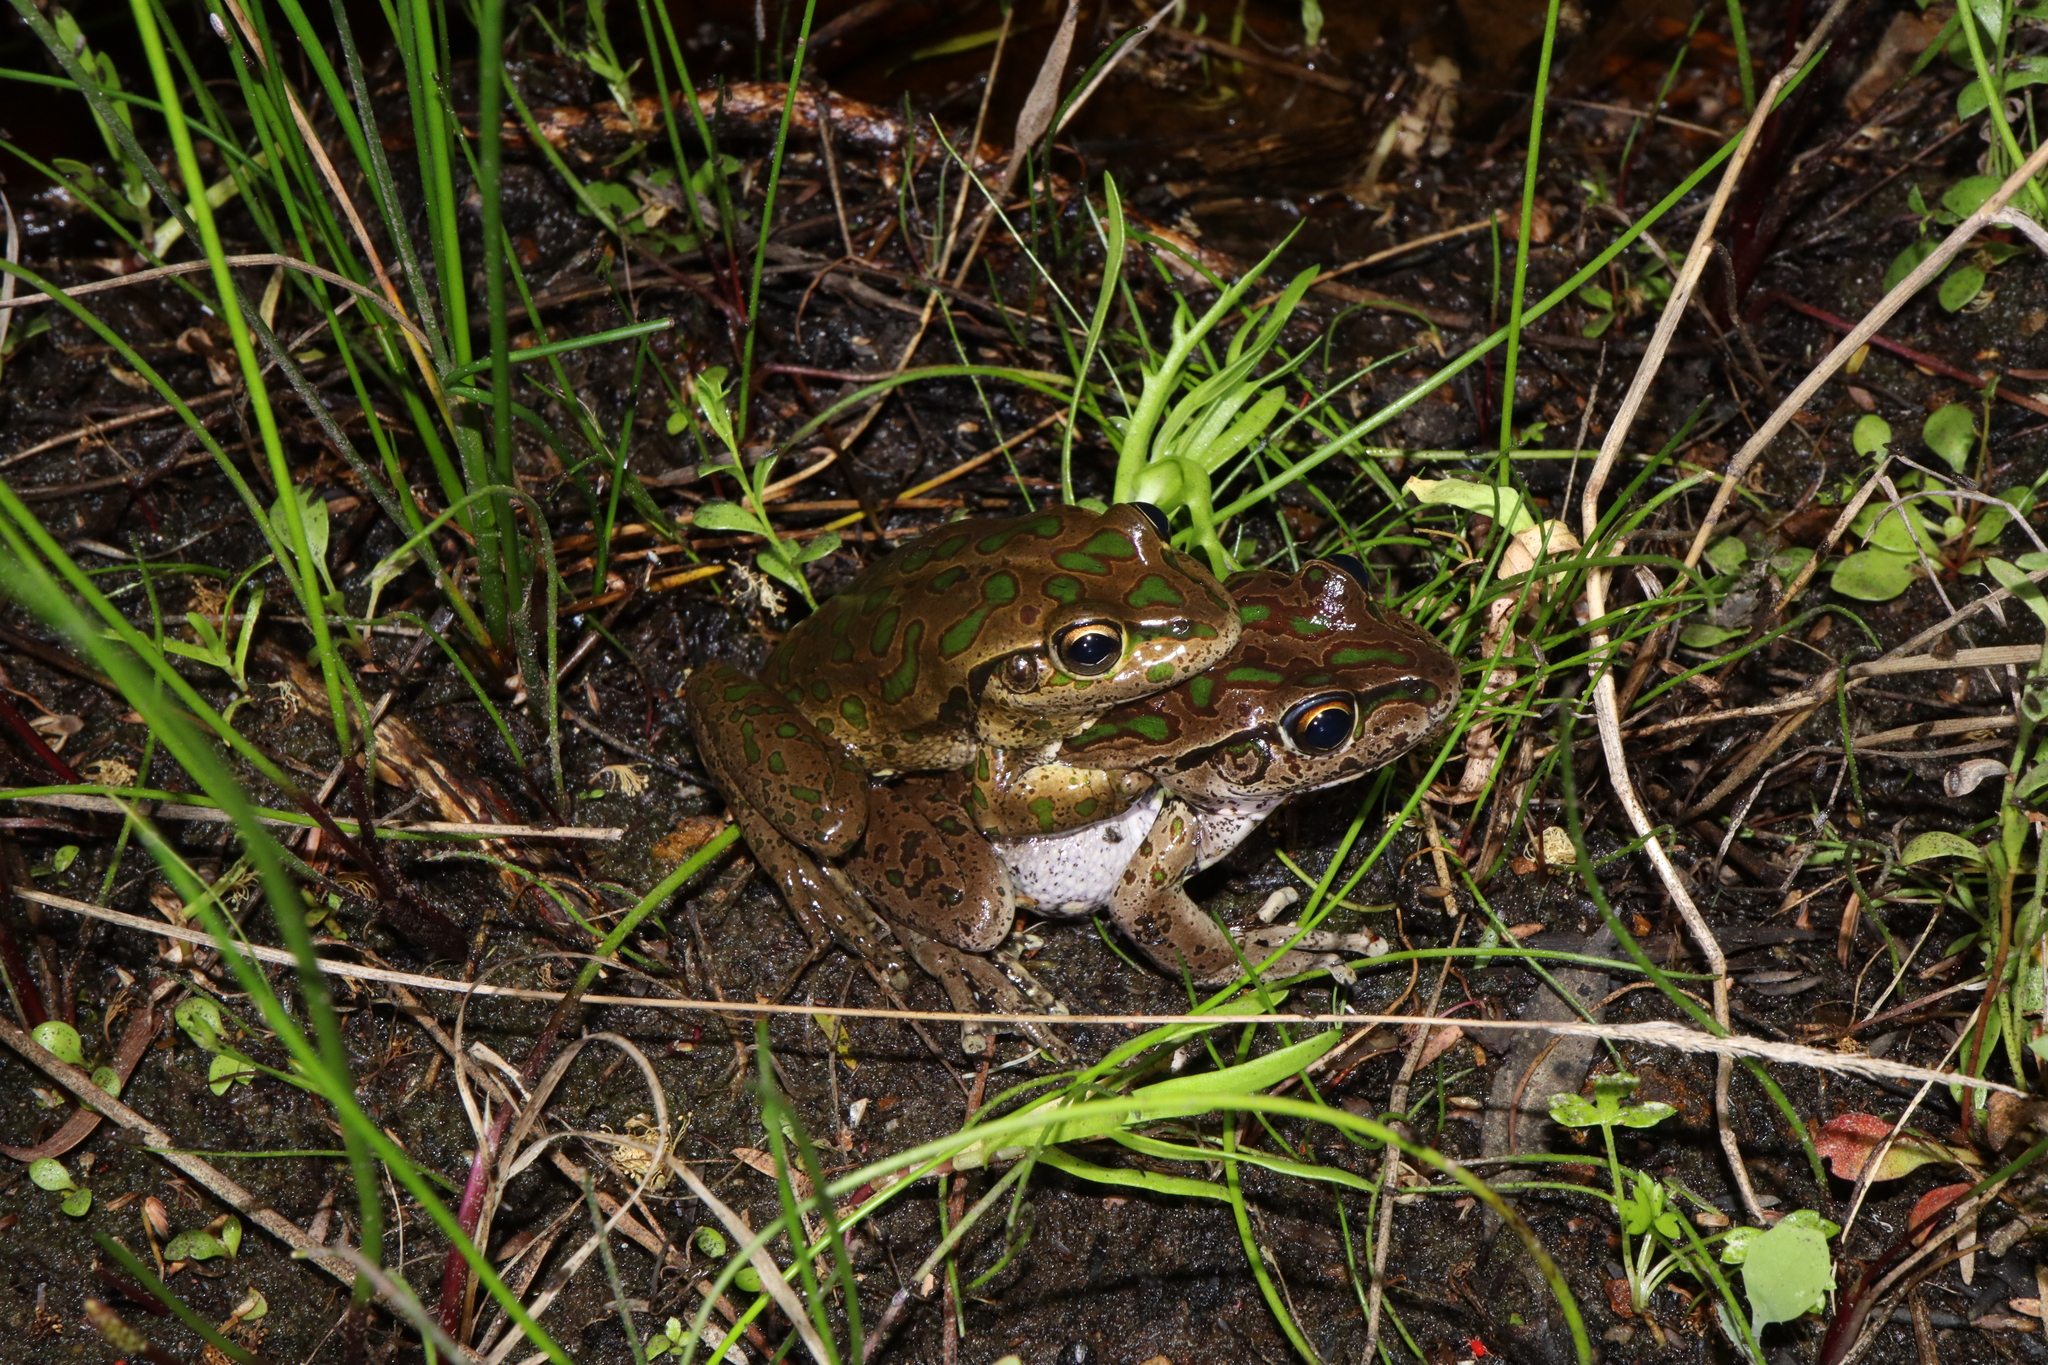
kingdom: Animalia
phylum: Chordata
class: Amphibia
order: Anura
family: Pelodryadidae
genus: Ranoidea
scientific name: Ranoidea cyclorhynchus
